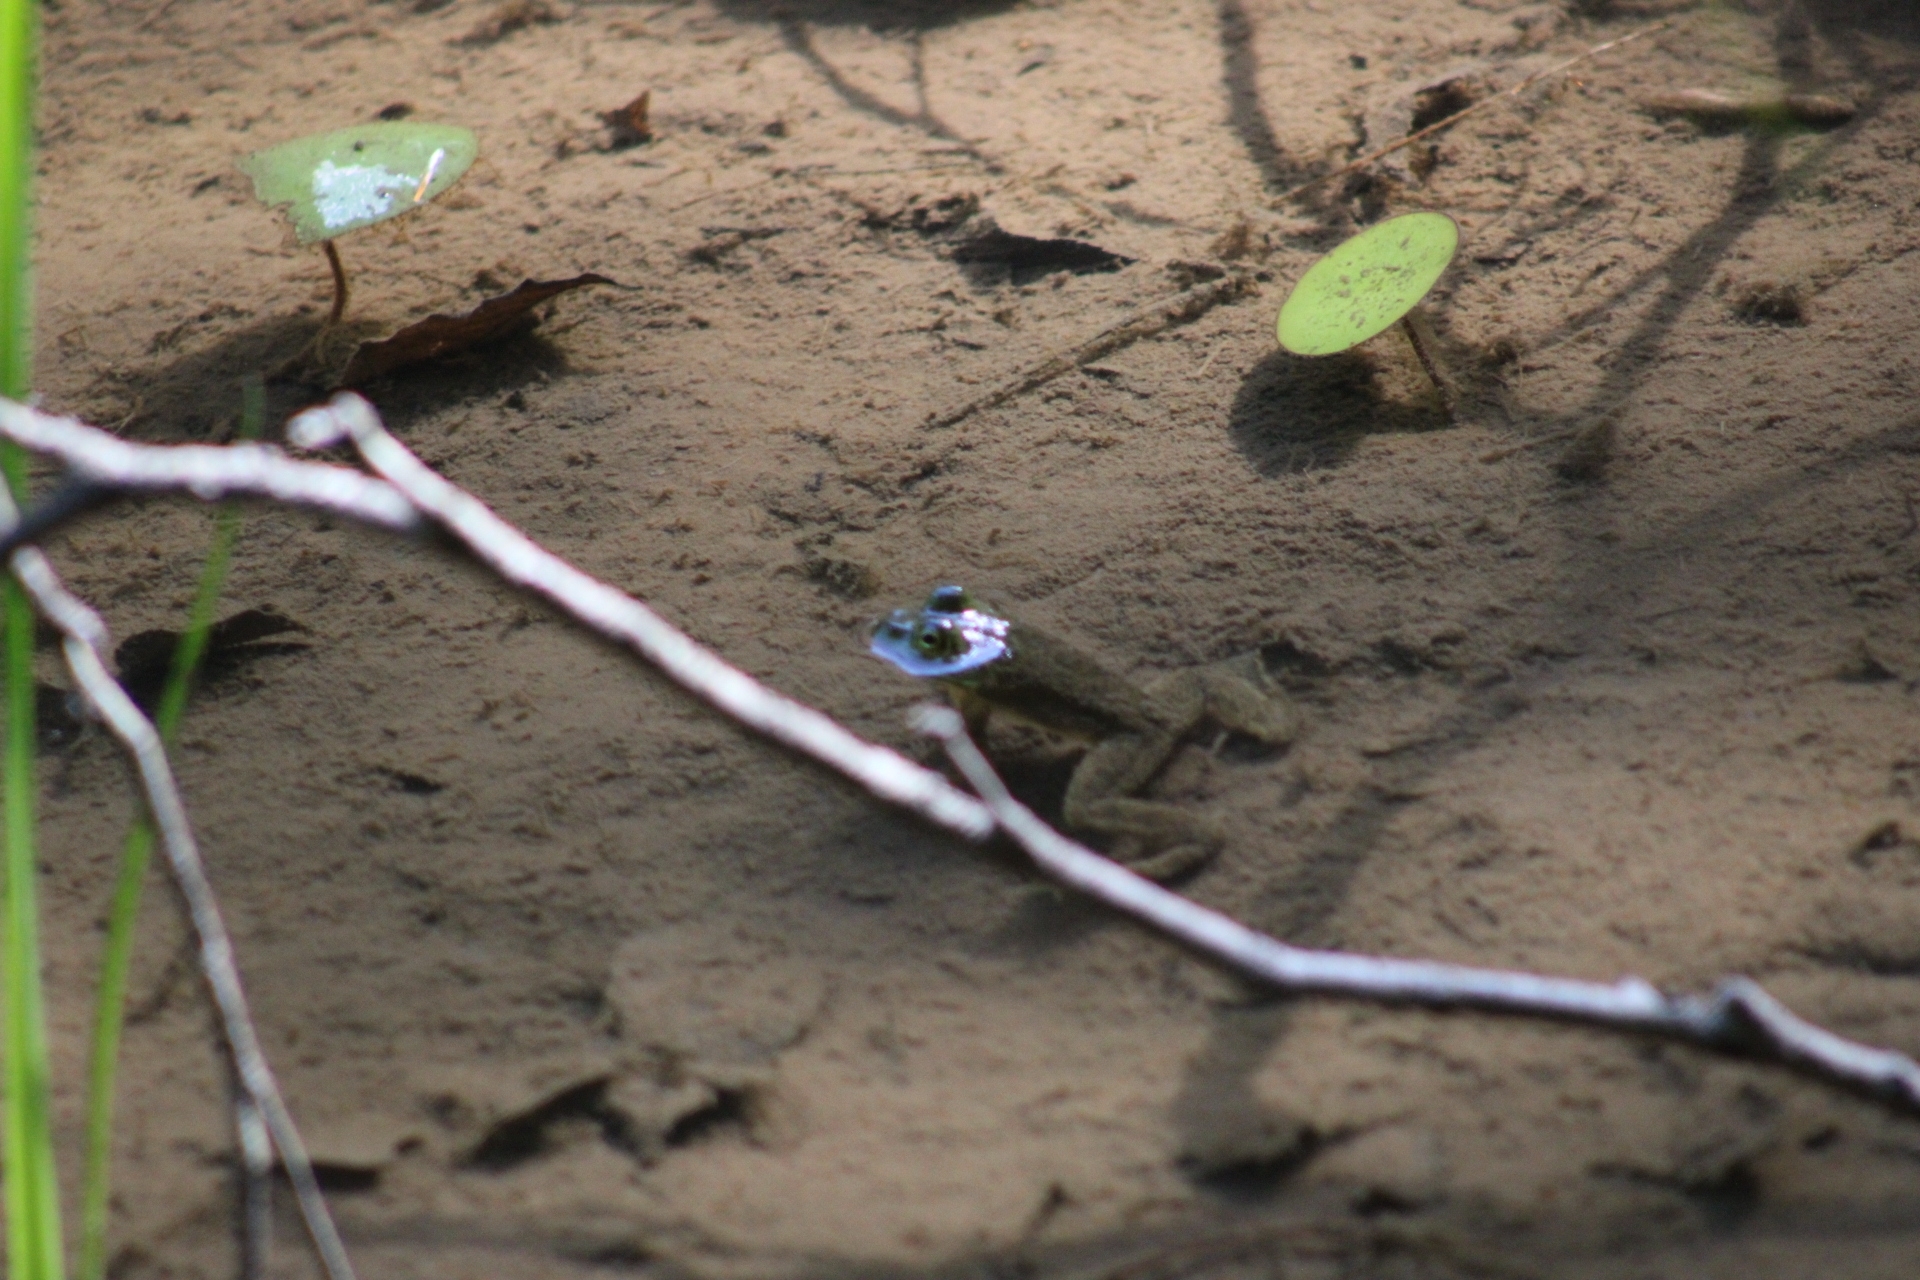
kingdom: Animalia
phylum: Chordata
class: Amphibia
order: Anura
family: Ranidae
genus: Lithobates
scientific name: Lithobates catesbeianus
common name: American bullfrog
